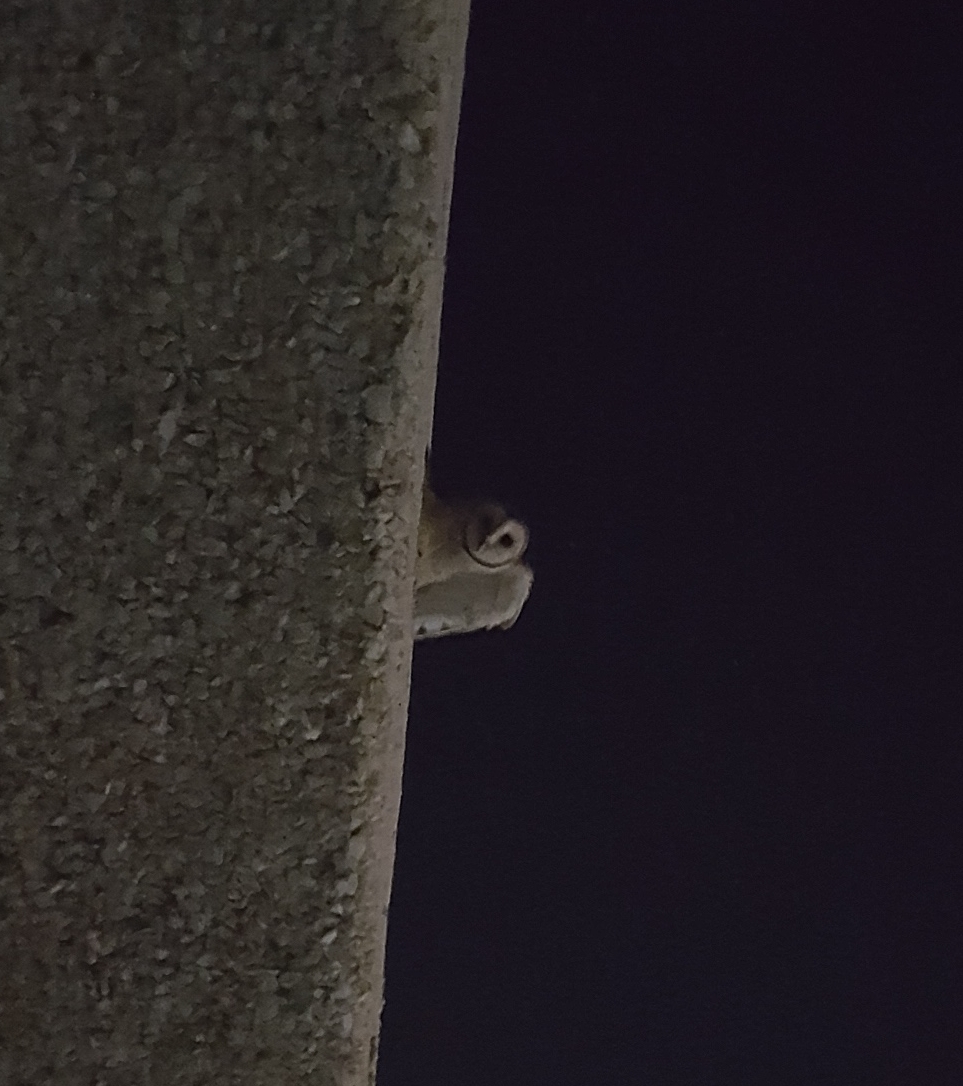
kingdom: Animalia
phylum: Chordata
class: Aves
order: Strigiformes
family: Tytonidae
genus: Tyto
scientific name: Tyto alba
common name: Barn owl
